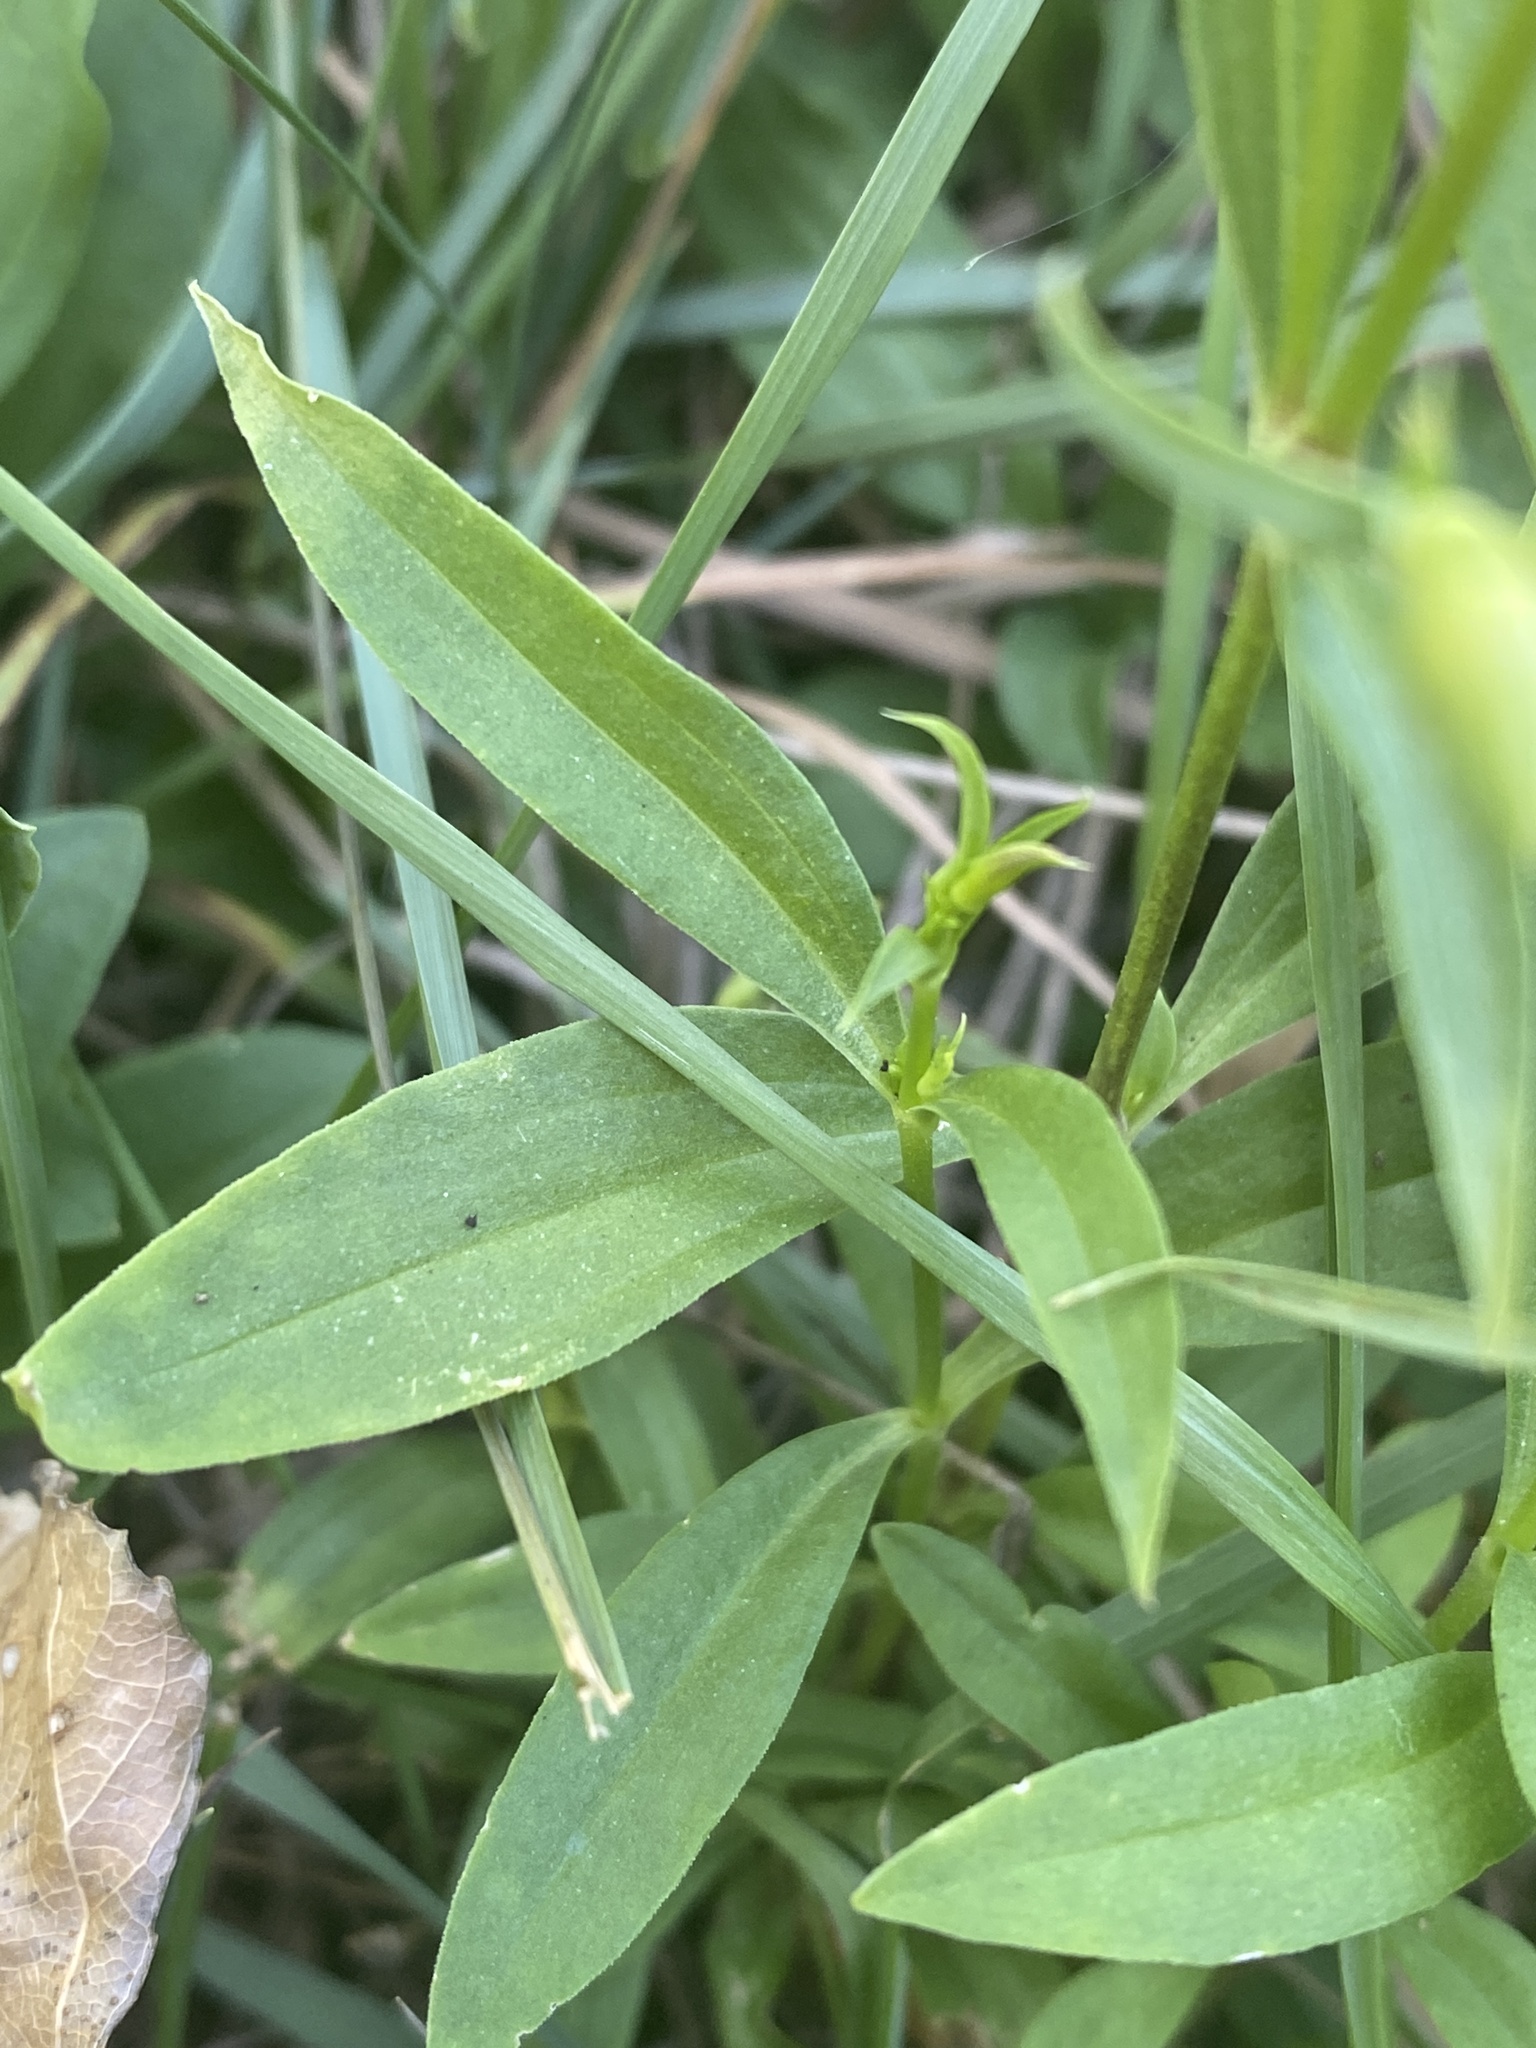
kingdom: Plantae
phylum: Tracheophyta
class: Magnoliopsida
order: Caryophyllales
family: Caryophyllaceae
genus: Saponaria
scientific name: Saponaria officinalis
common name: Soapwort
